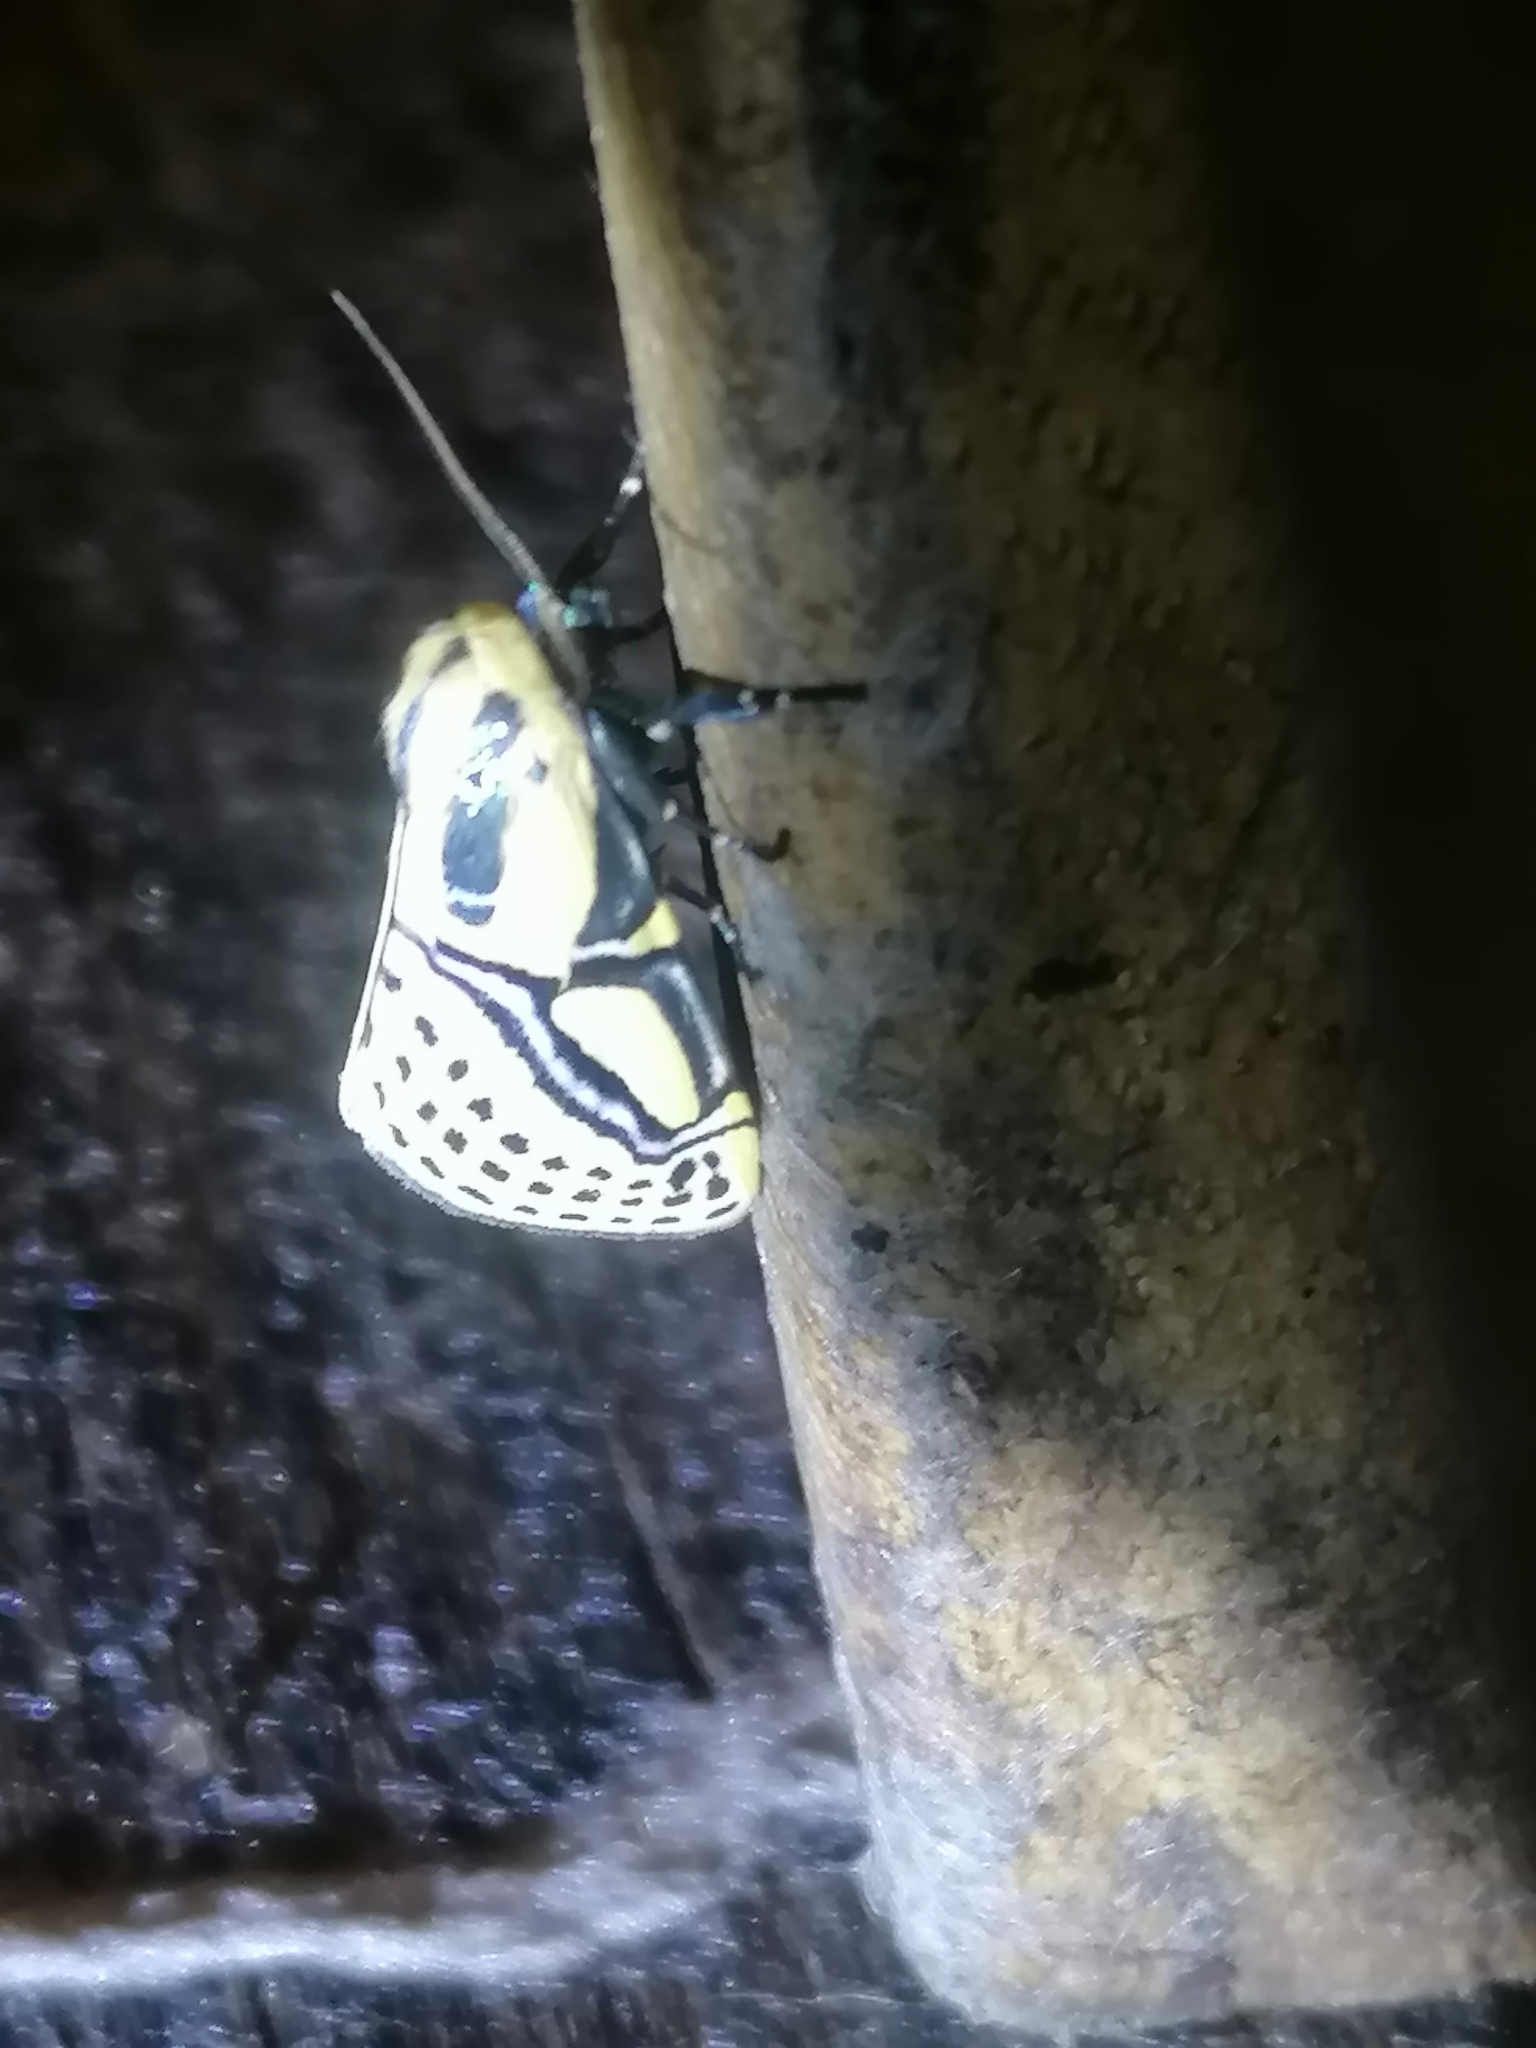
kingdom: Animalia
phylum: Arthropoda
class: Insecta
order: Lepidoptera
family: Erebidae
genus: Diphthera
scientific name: Diphthera festiva
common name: Hieroglyphic moth
